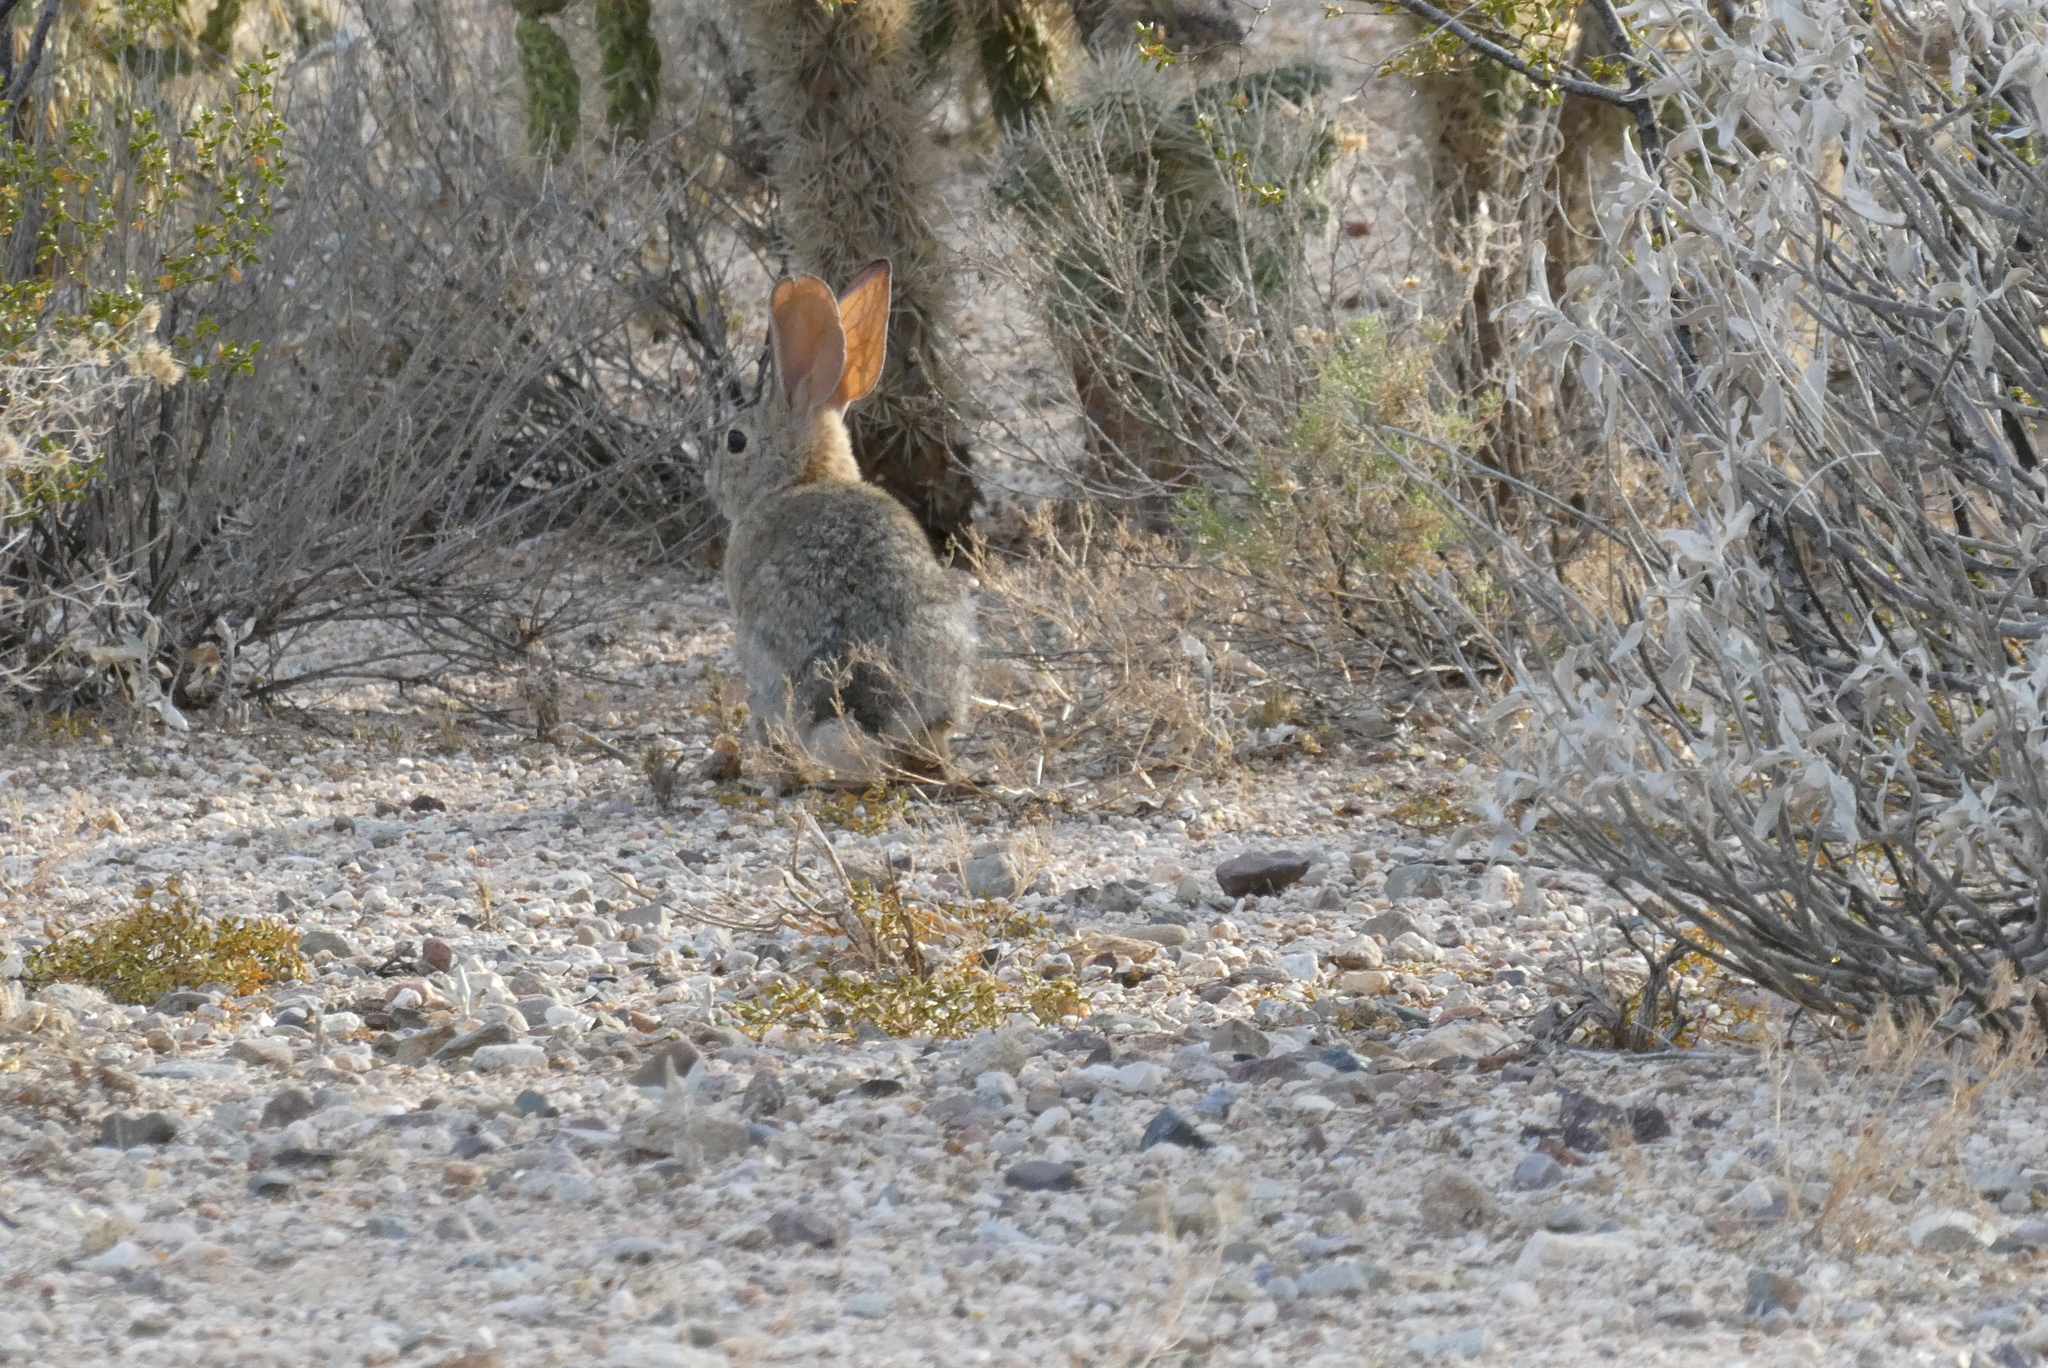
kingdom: Animalia
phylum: Chordata
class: Mammalia
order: Lagomorpha
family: Leporidae
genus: Sylvilagus
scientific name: Sylvilagus audubonii
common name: Desert cottontail
